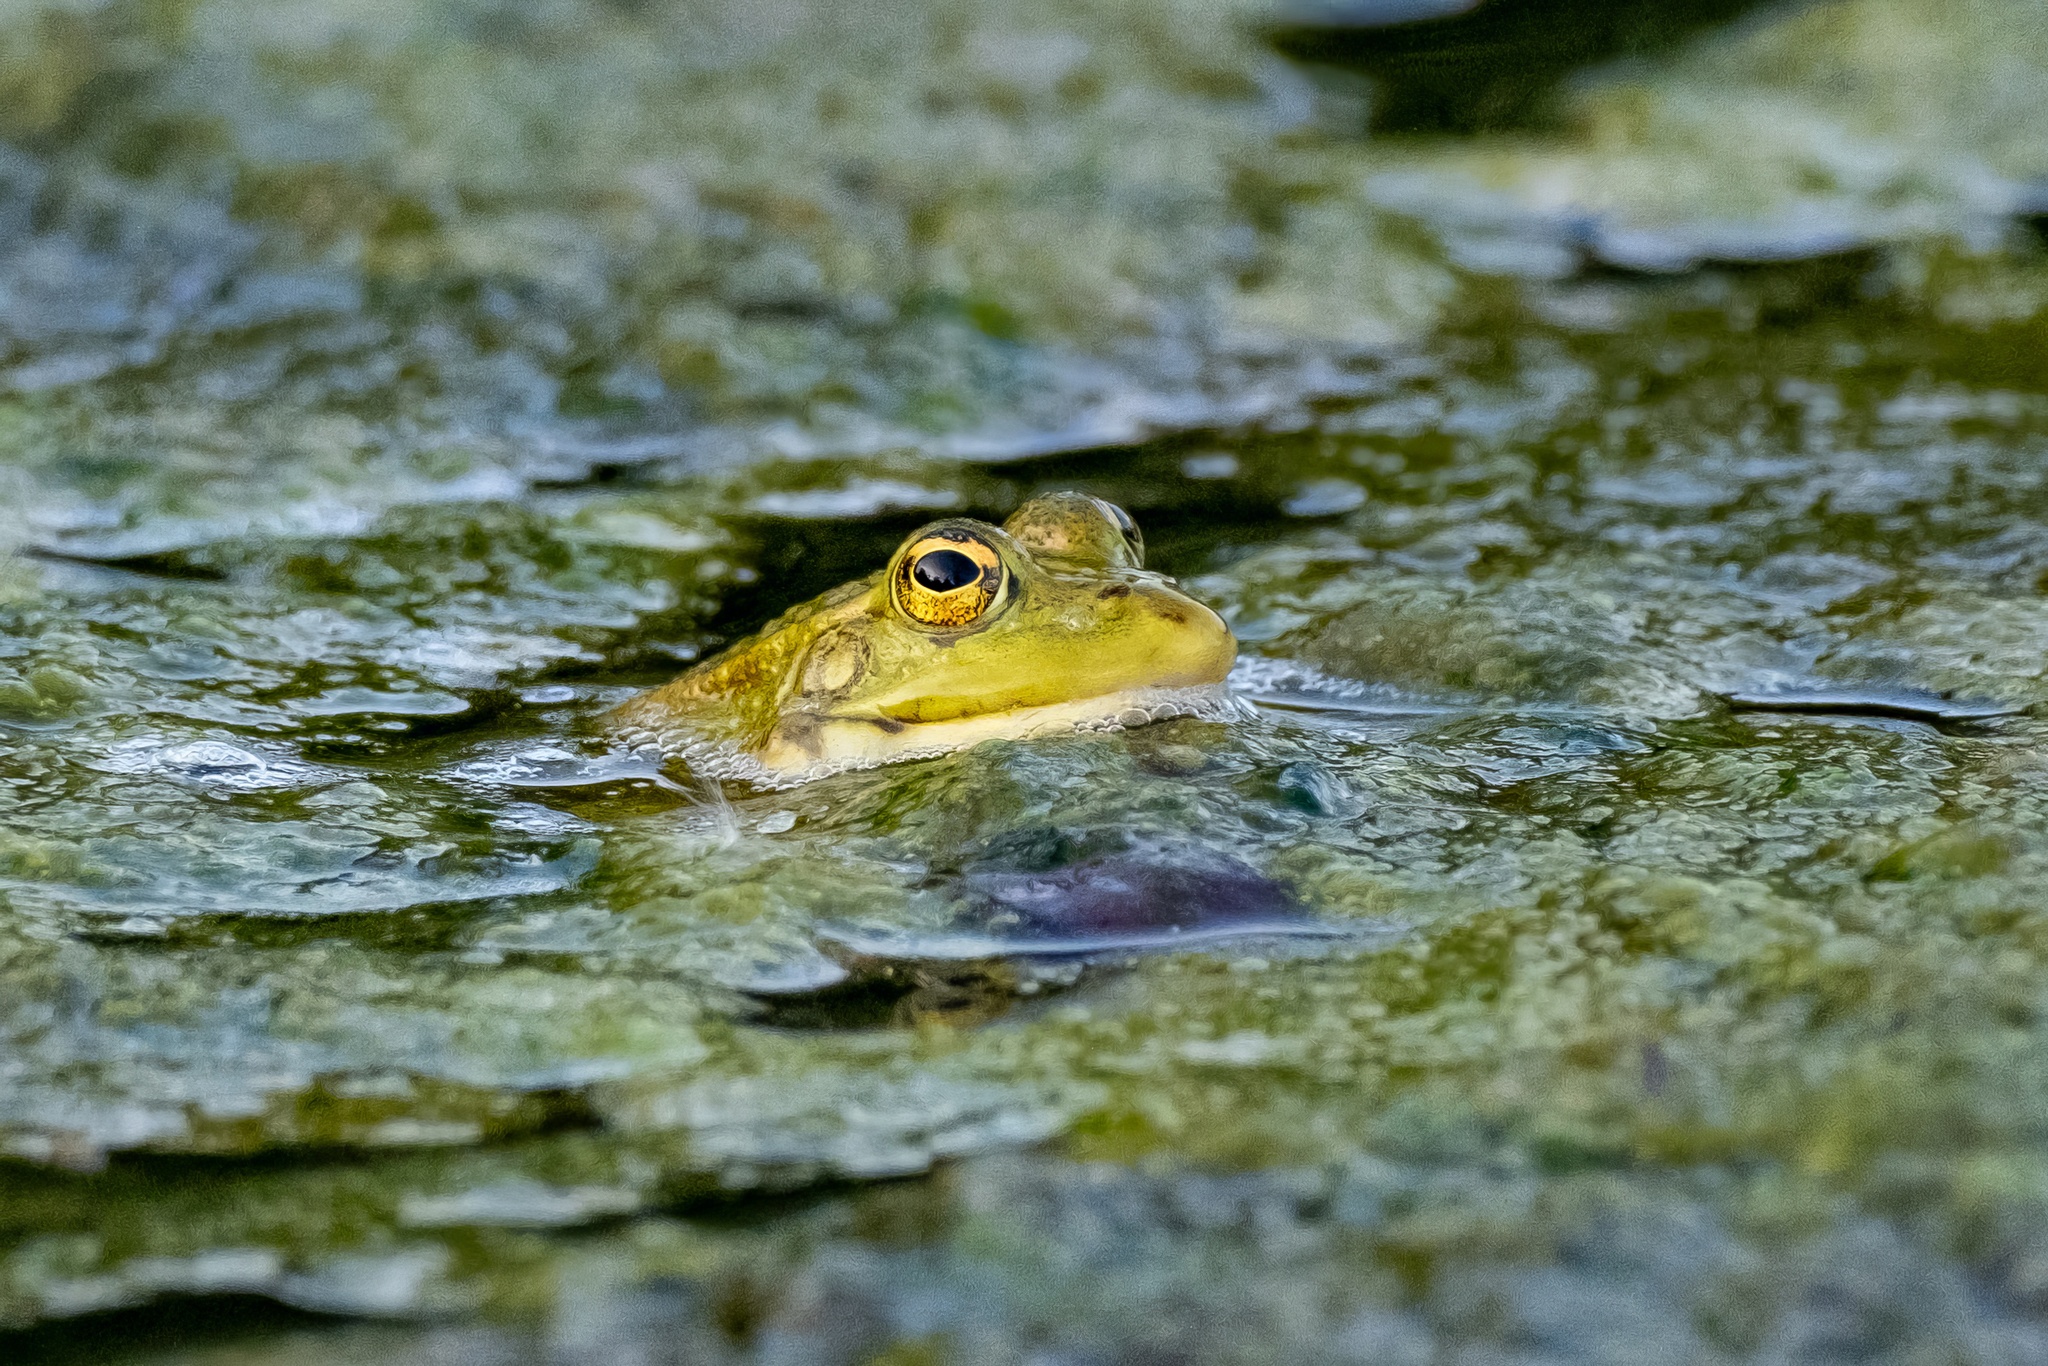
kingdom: Animalia
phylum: Chordata
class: Amphibia
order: Anura
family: Ranidae
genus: Pelophylax
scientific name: Pelophylax perezi
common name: Perez's frog
